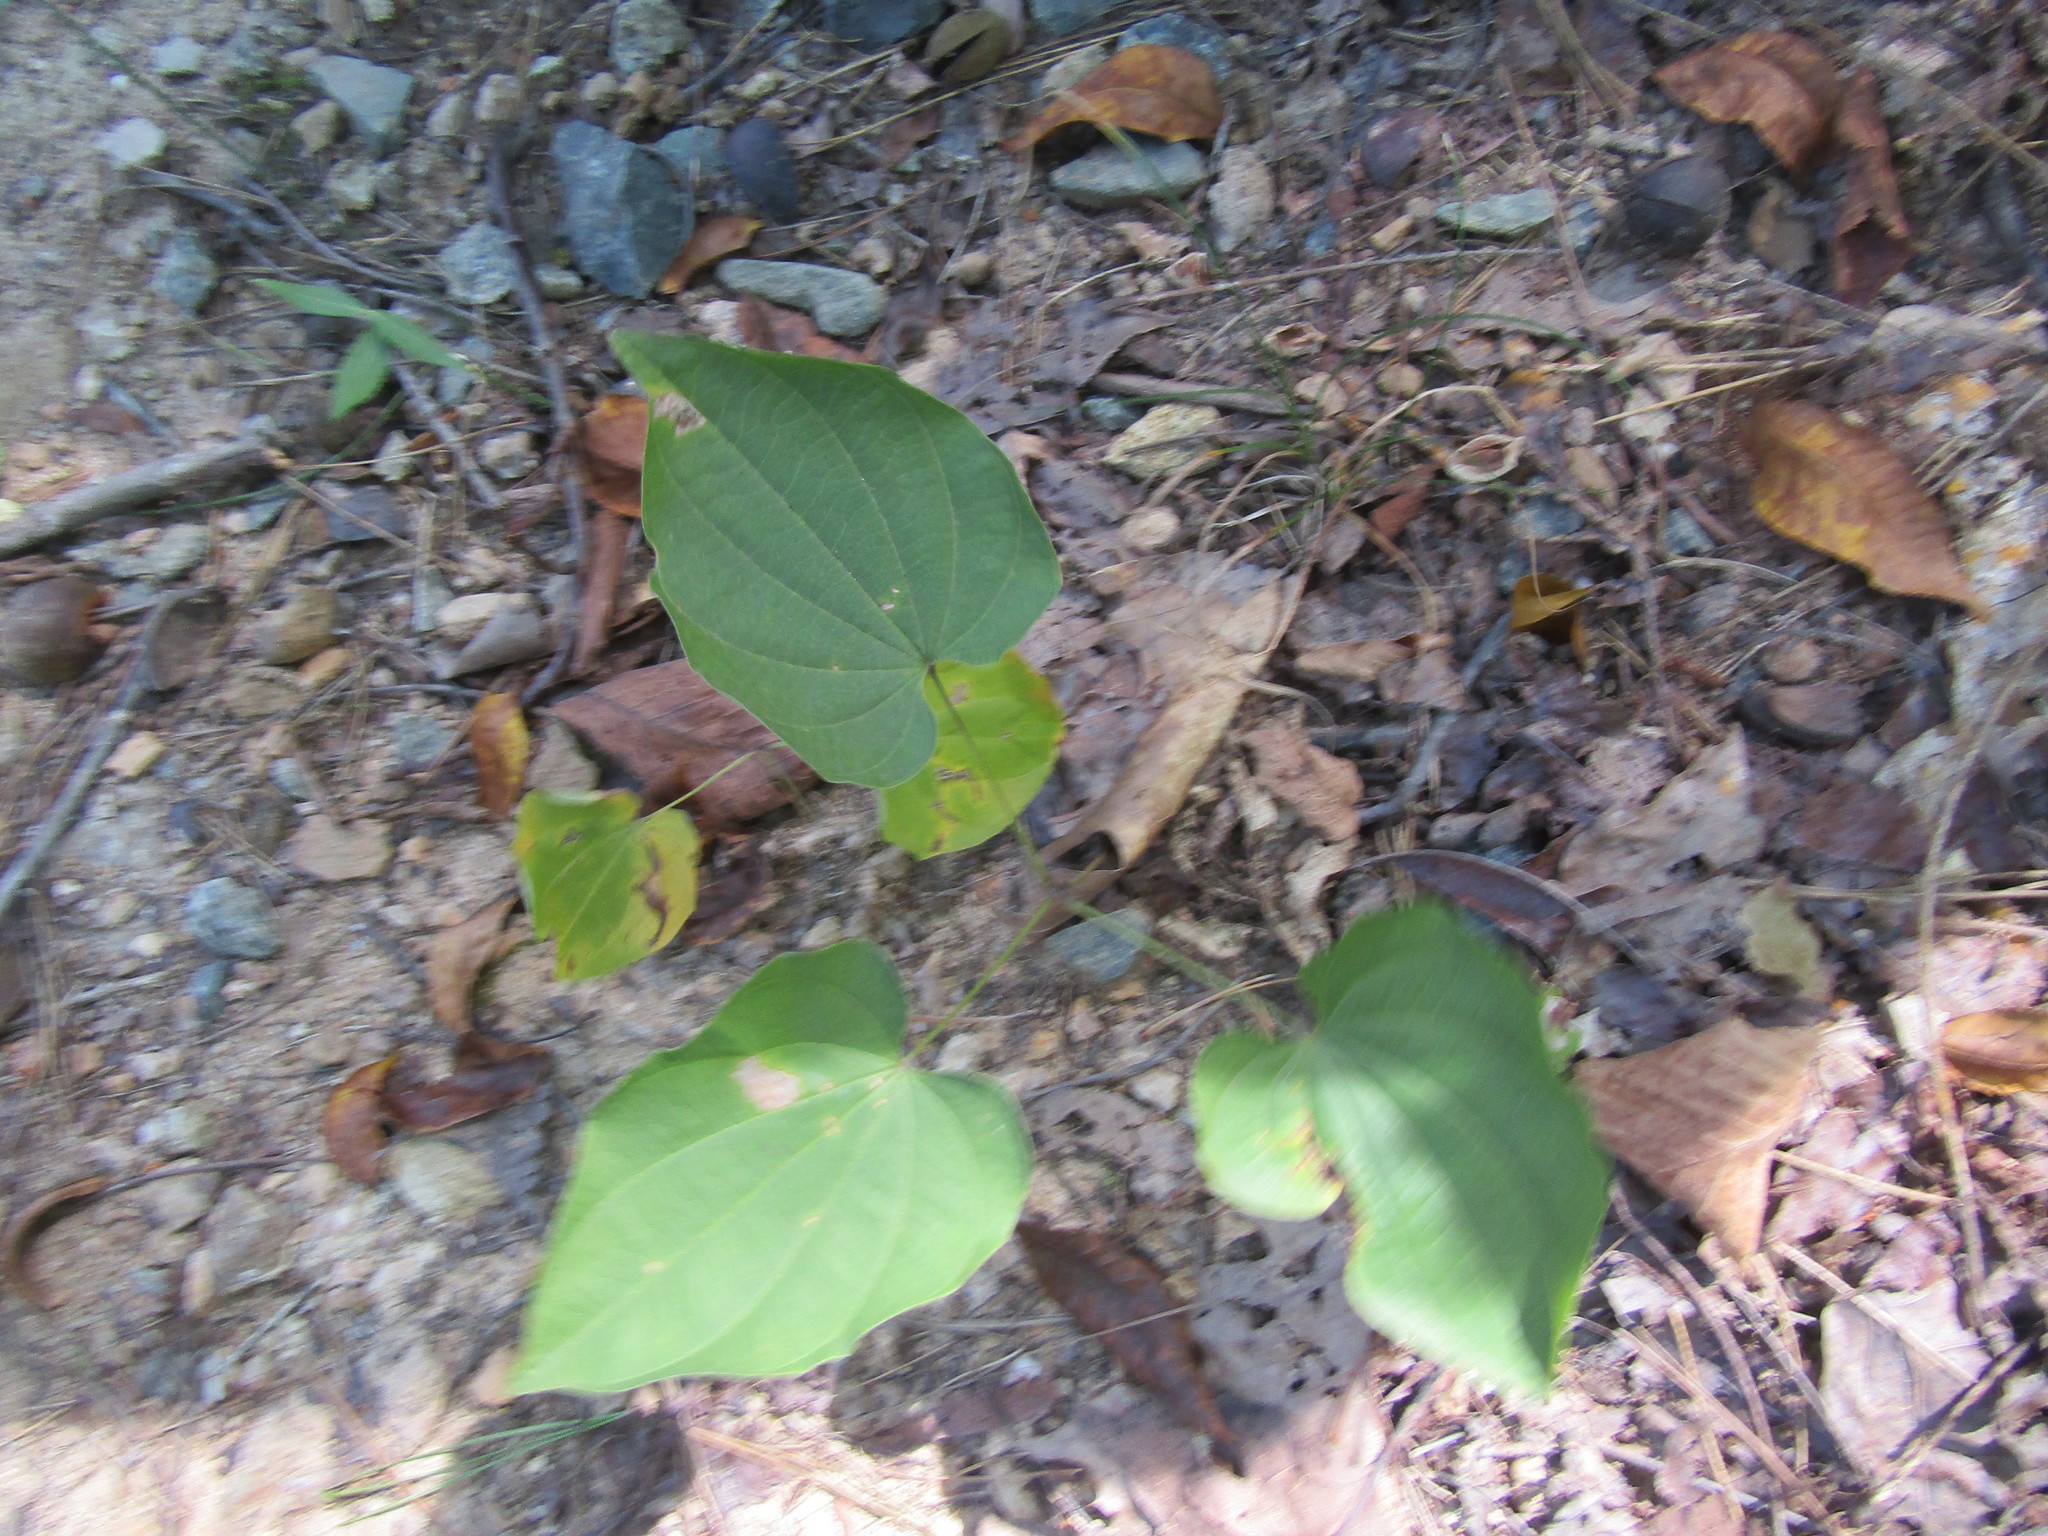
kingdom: Plantae
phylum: Tracheophyta
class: Liliopsida
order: Dioscoreales
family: Dioscoreaceae
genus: Dioscorea
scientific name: Dioscorea villosa
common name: Wild yam
